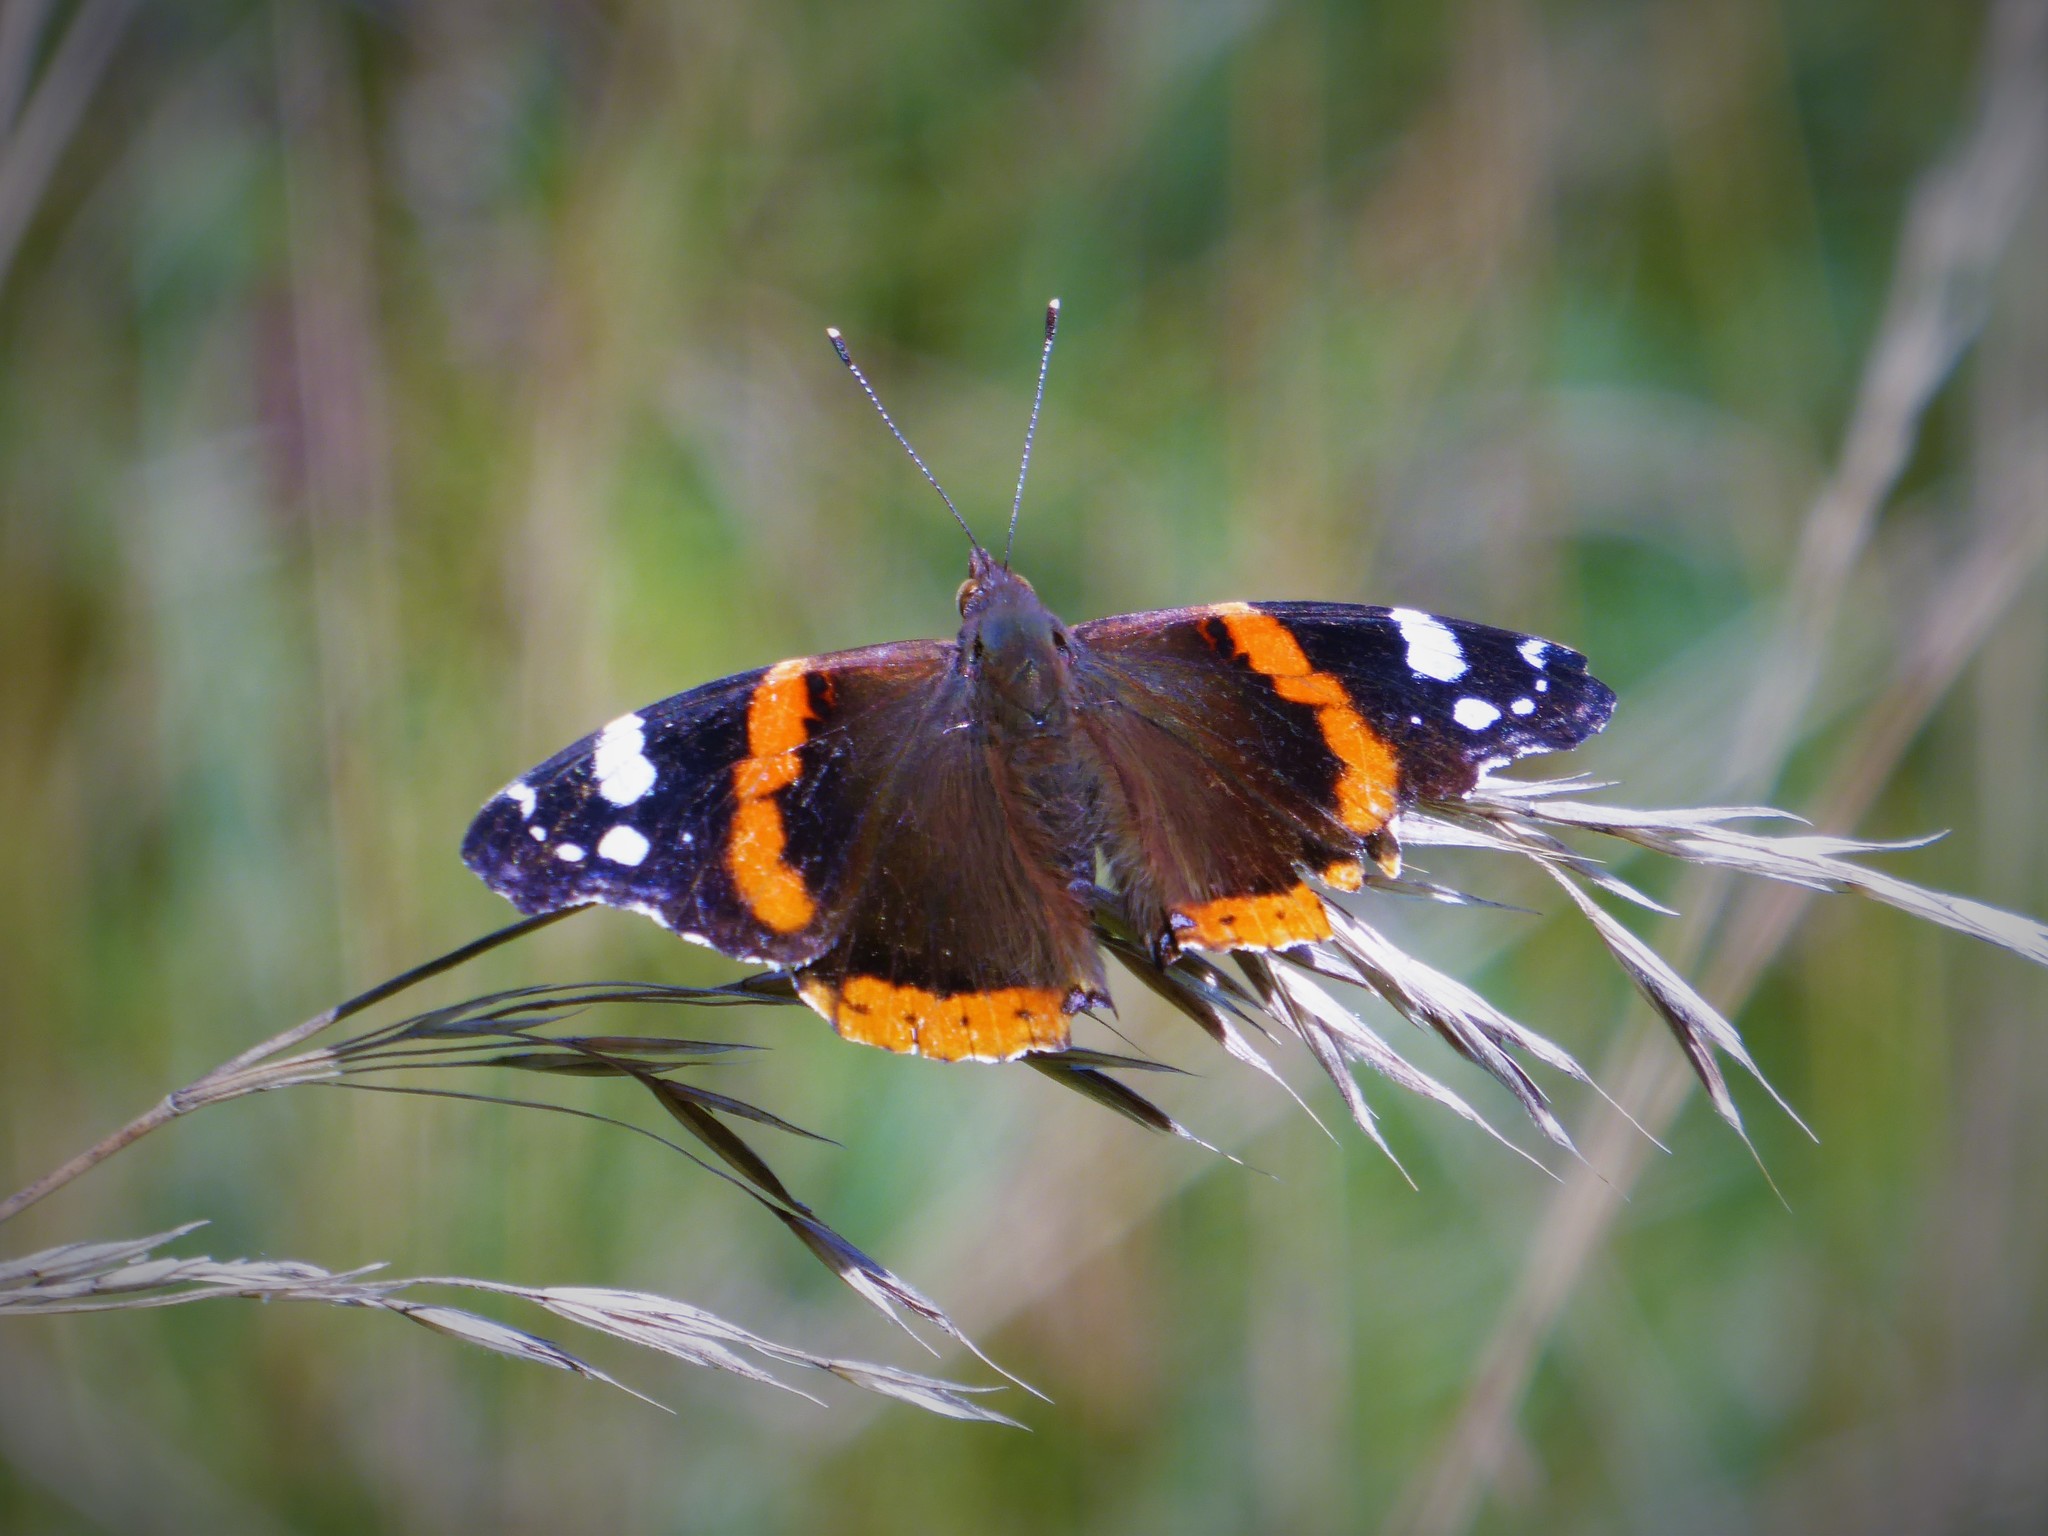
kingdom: Animalia
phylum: Arthropoda
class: Insecta
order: Lepidoptera
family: Nymphalidae
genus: Vanessa
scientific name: Vanessa atalanta
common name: Red admiral
